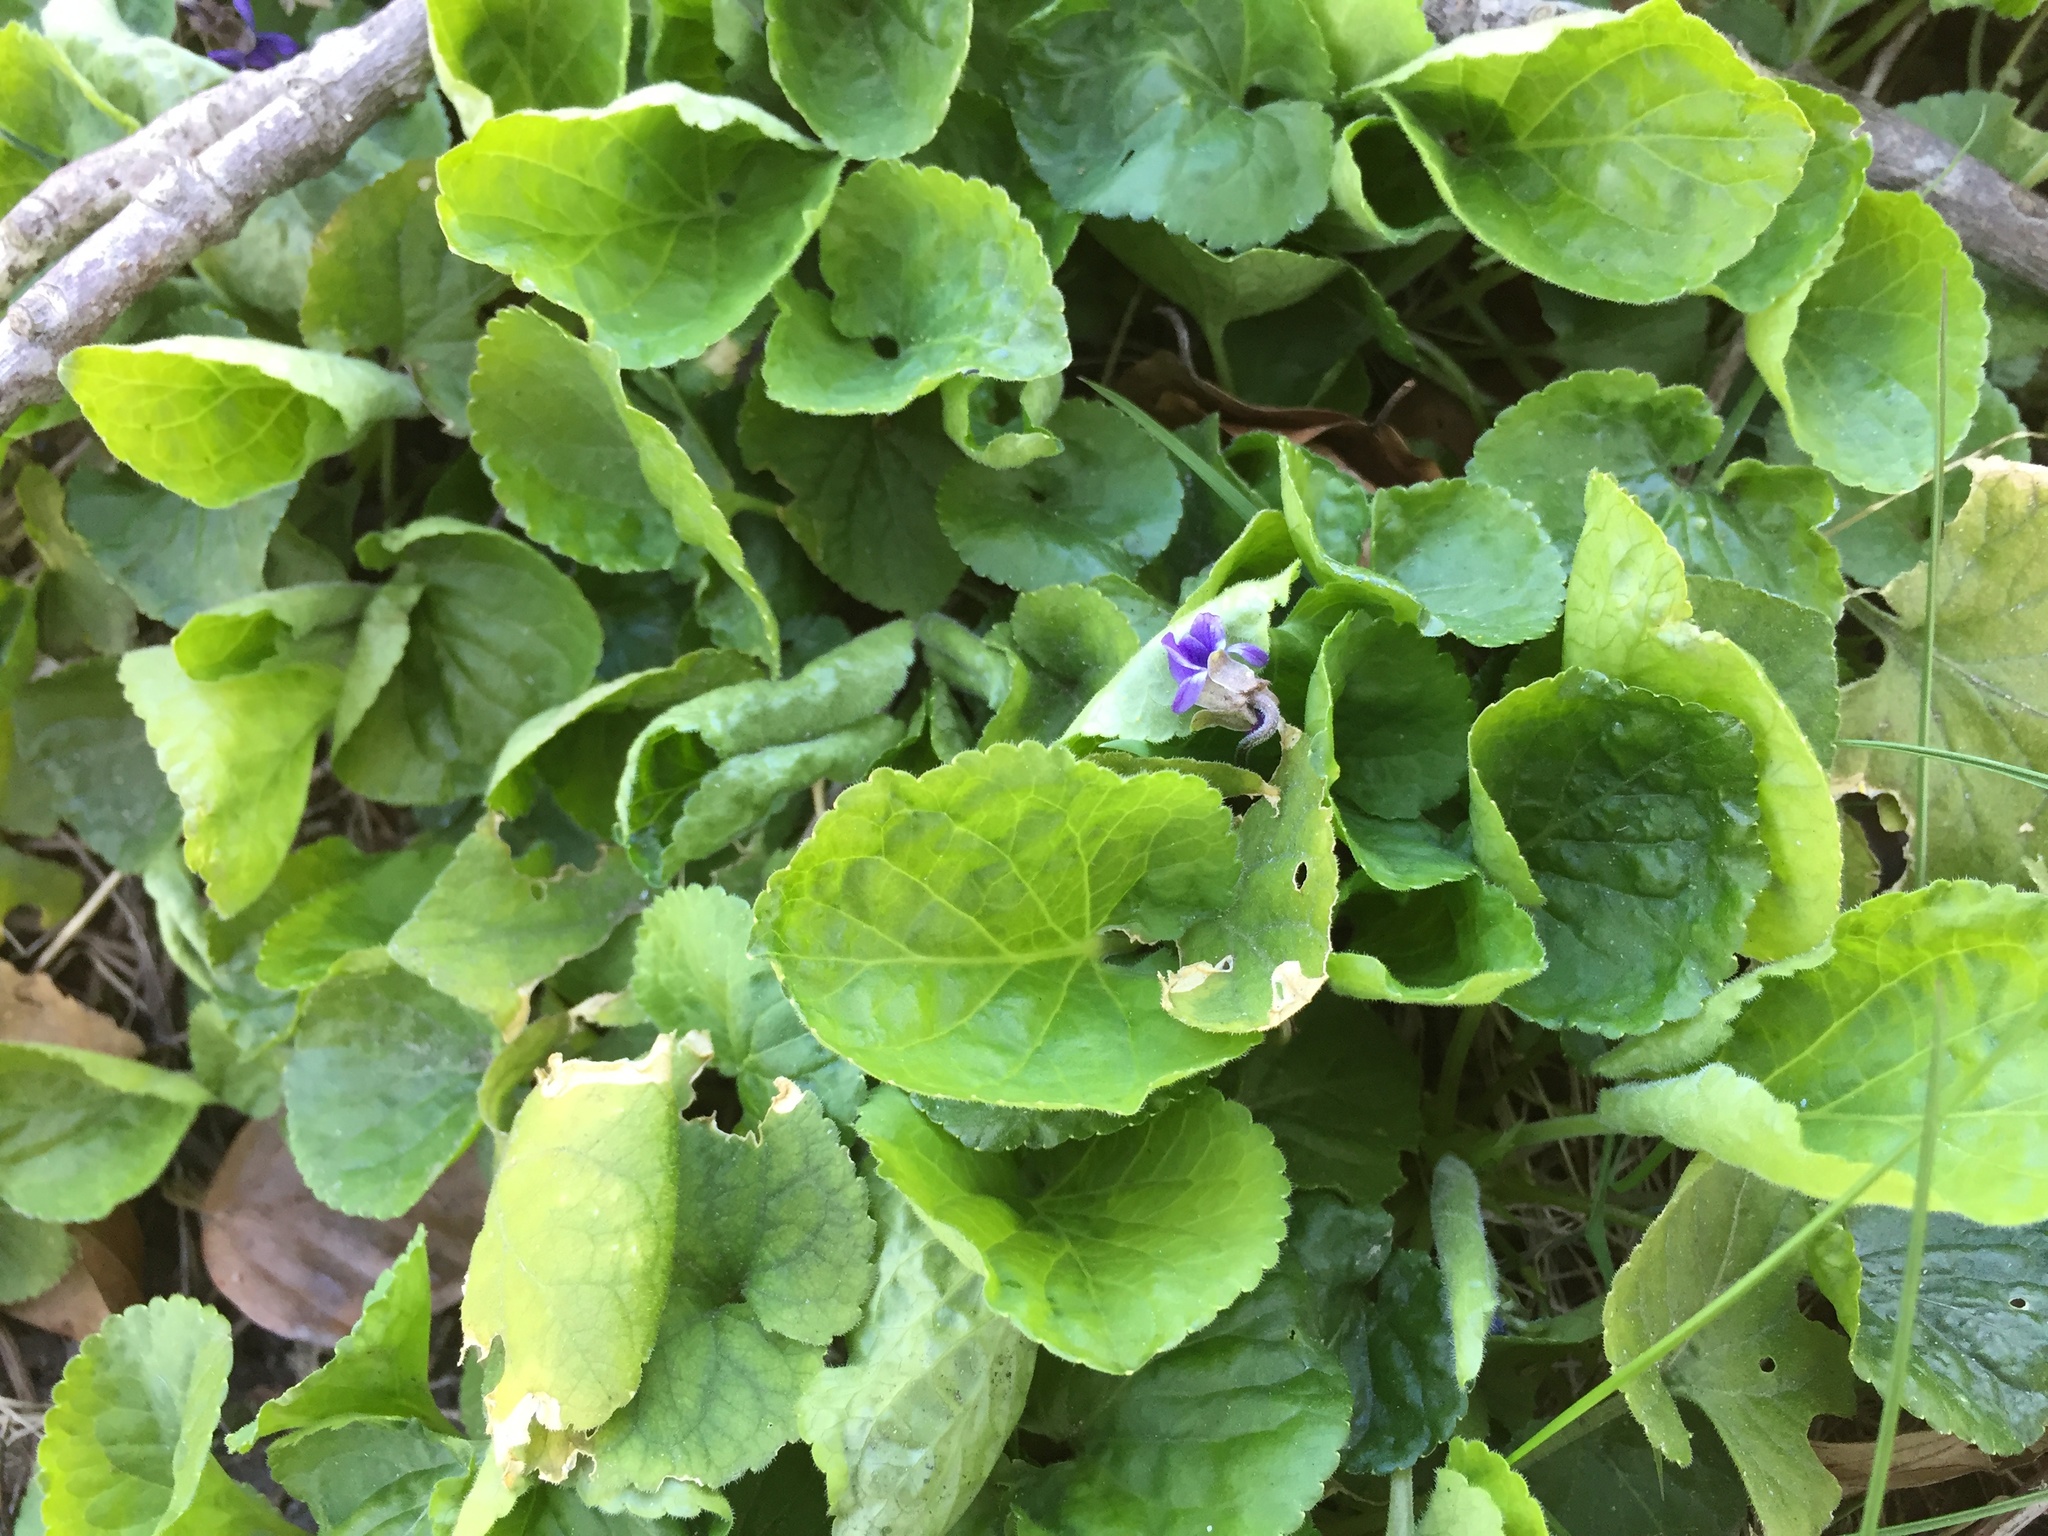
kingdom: Plantae
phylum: Tracheophyta
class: Magnoliopsida
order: Malpighiales
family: Violaceae
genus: Viola
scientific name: Viola odorata
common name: Sweet violet
